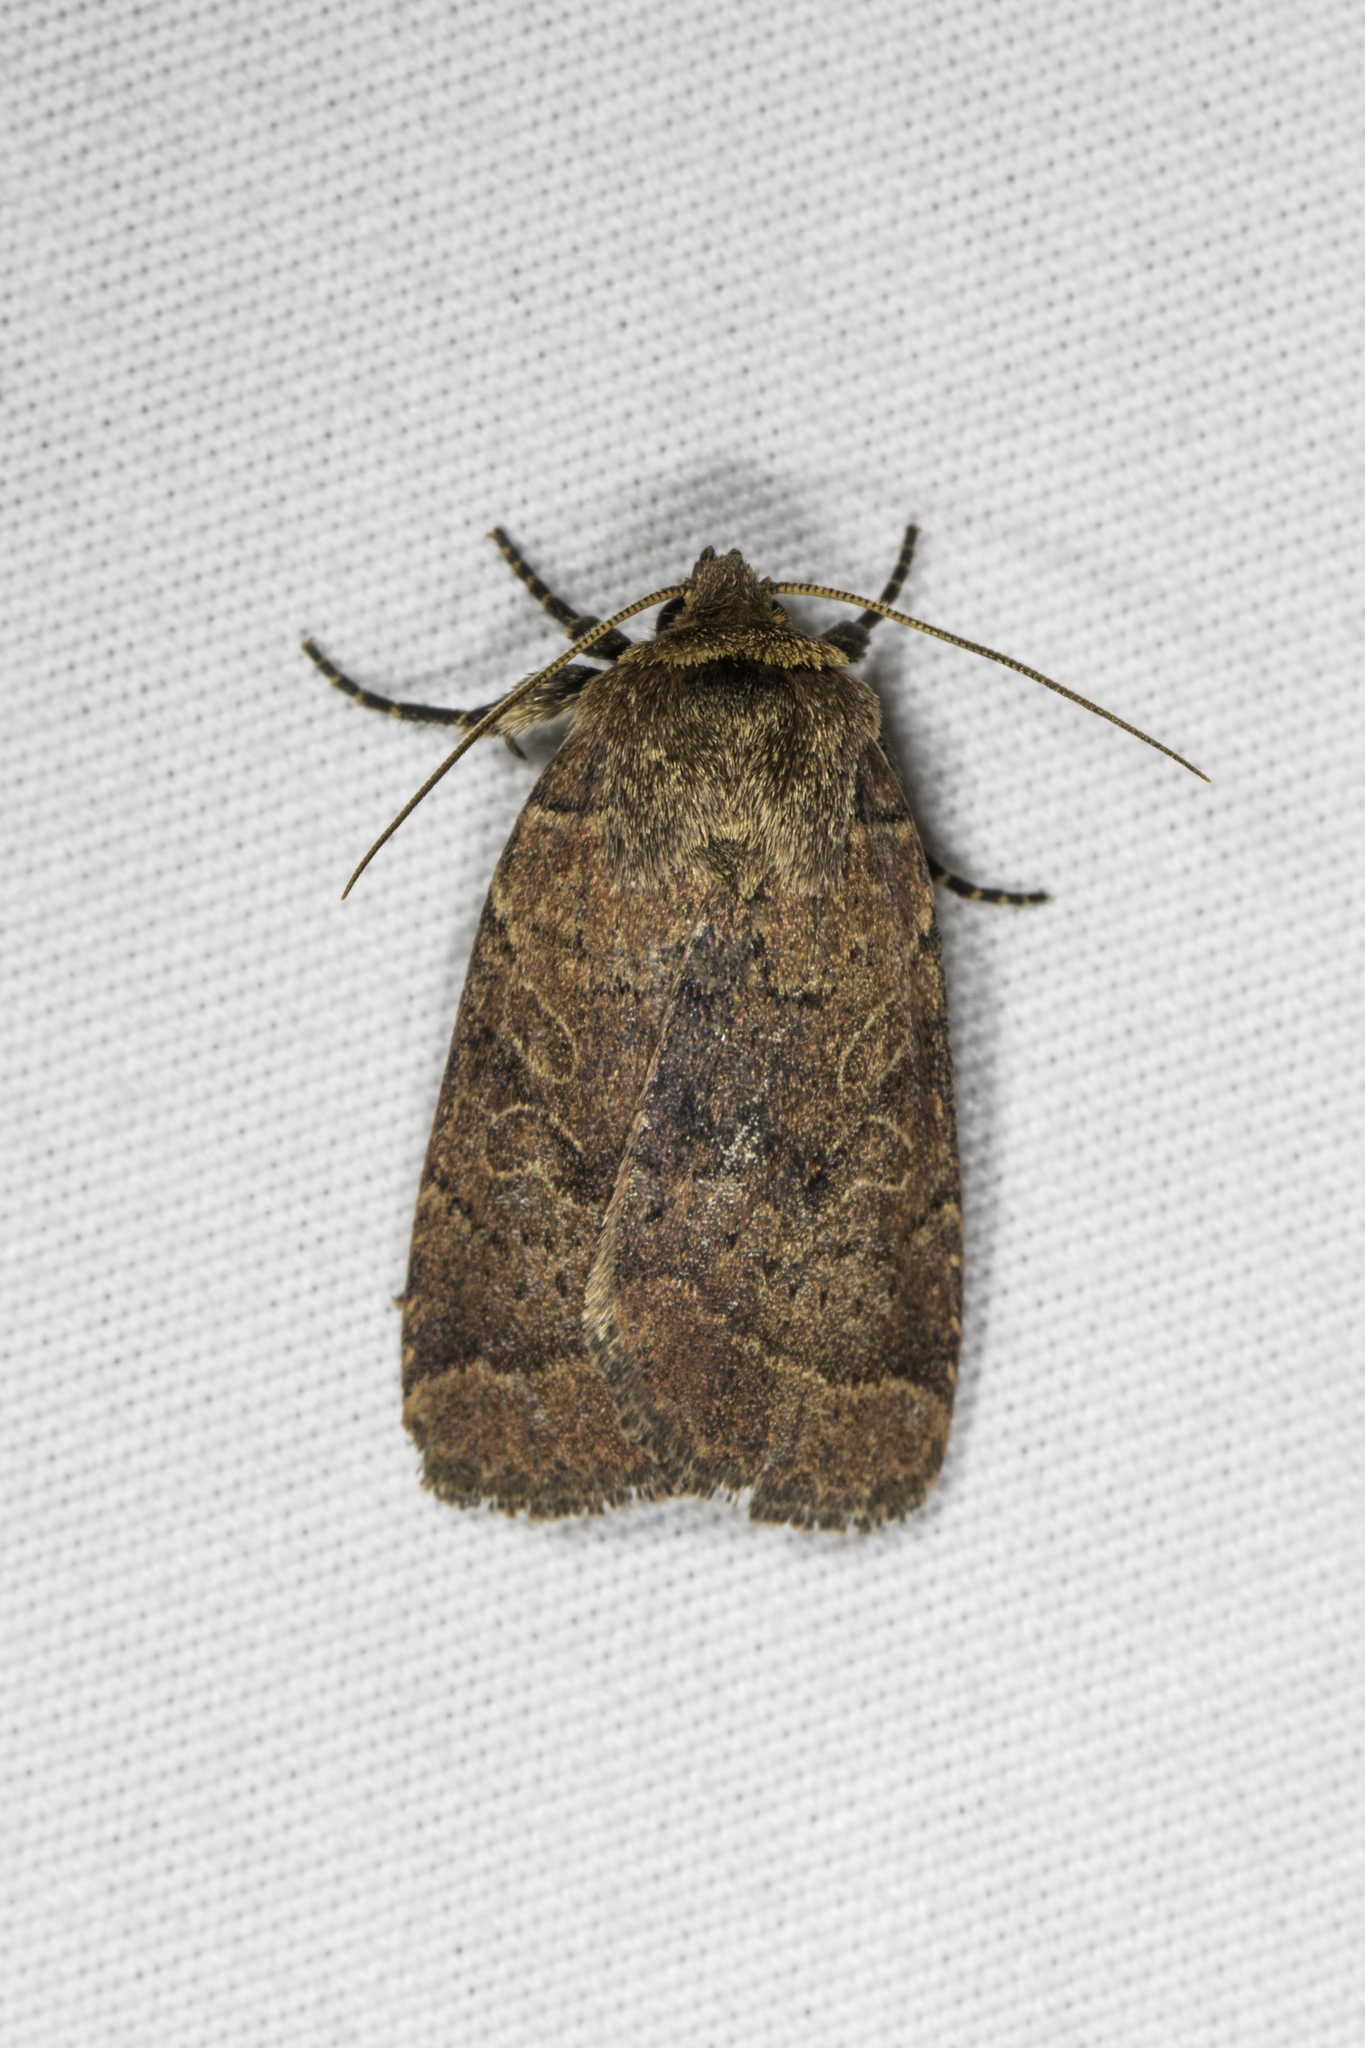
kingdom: Animalia
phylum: Arthropoda
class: Insecta
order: Lepidoptera
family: Noctuidae
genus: Orthodes
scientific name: Orthodes cynica
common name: Cynical quaker
